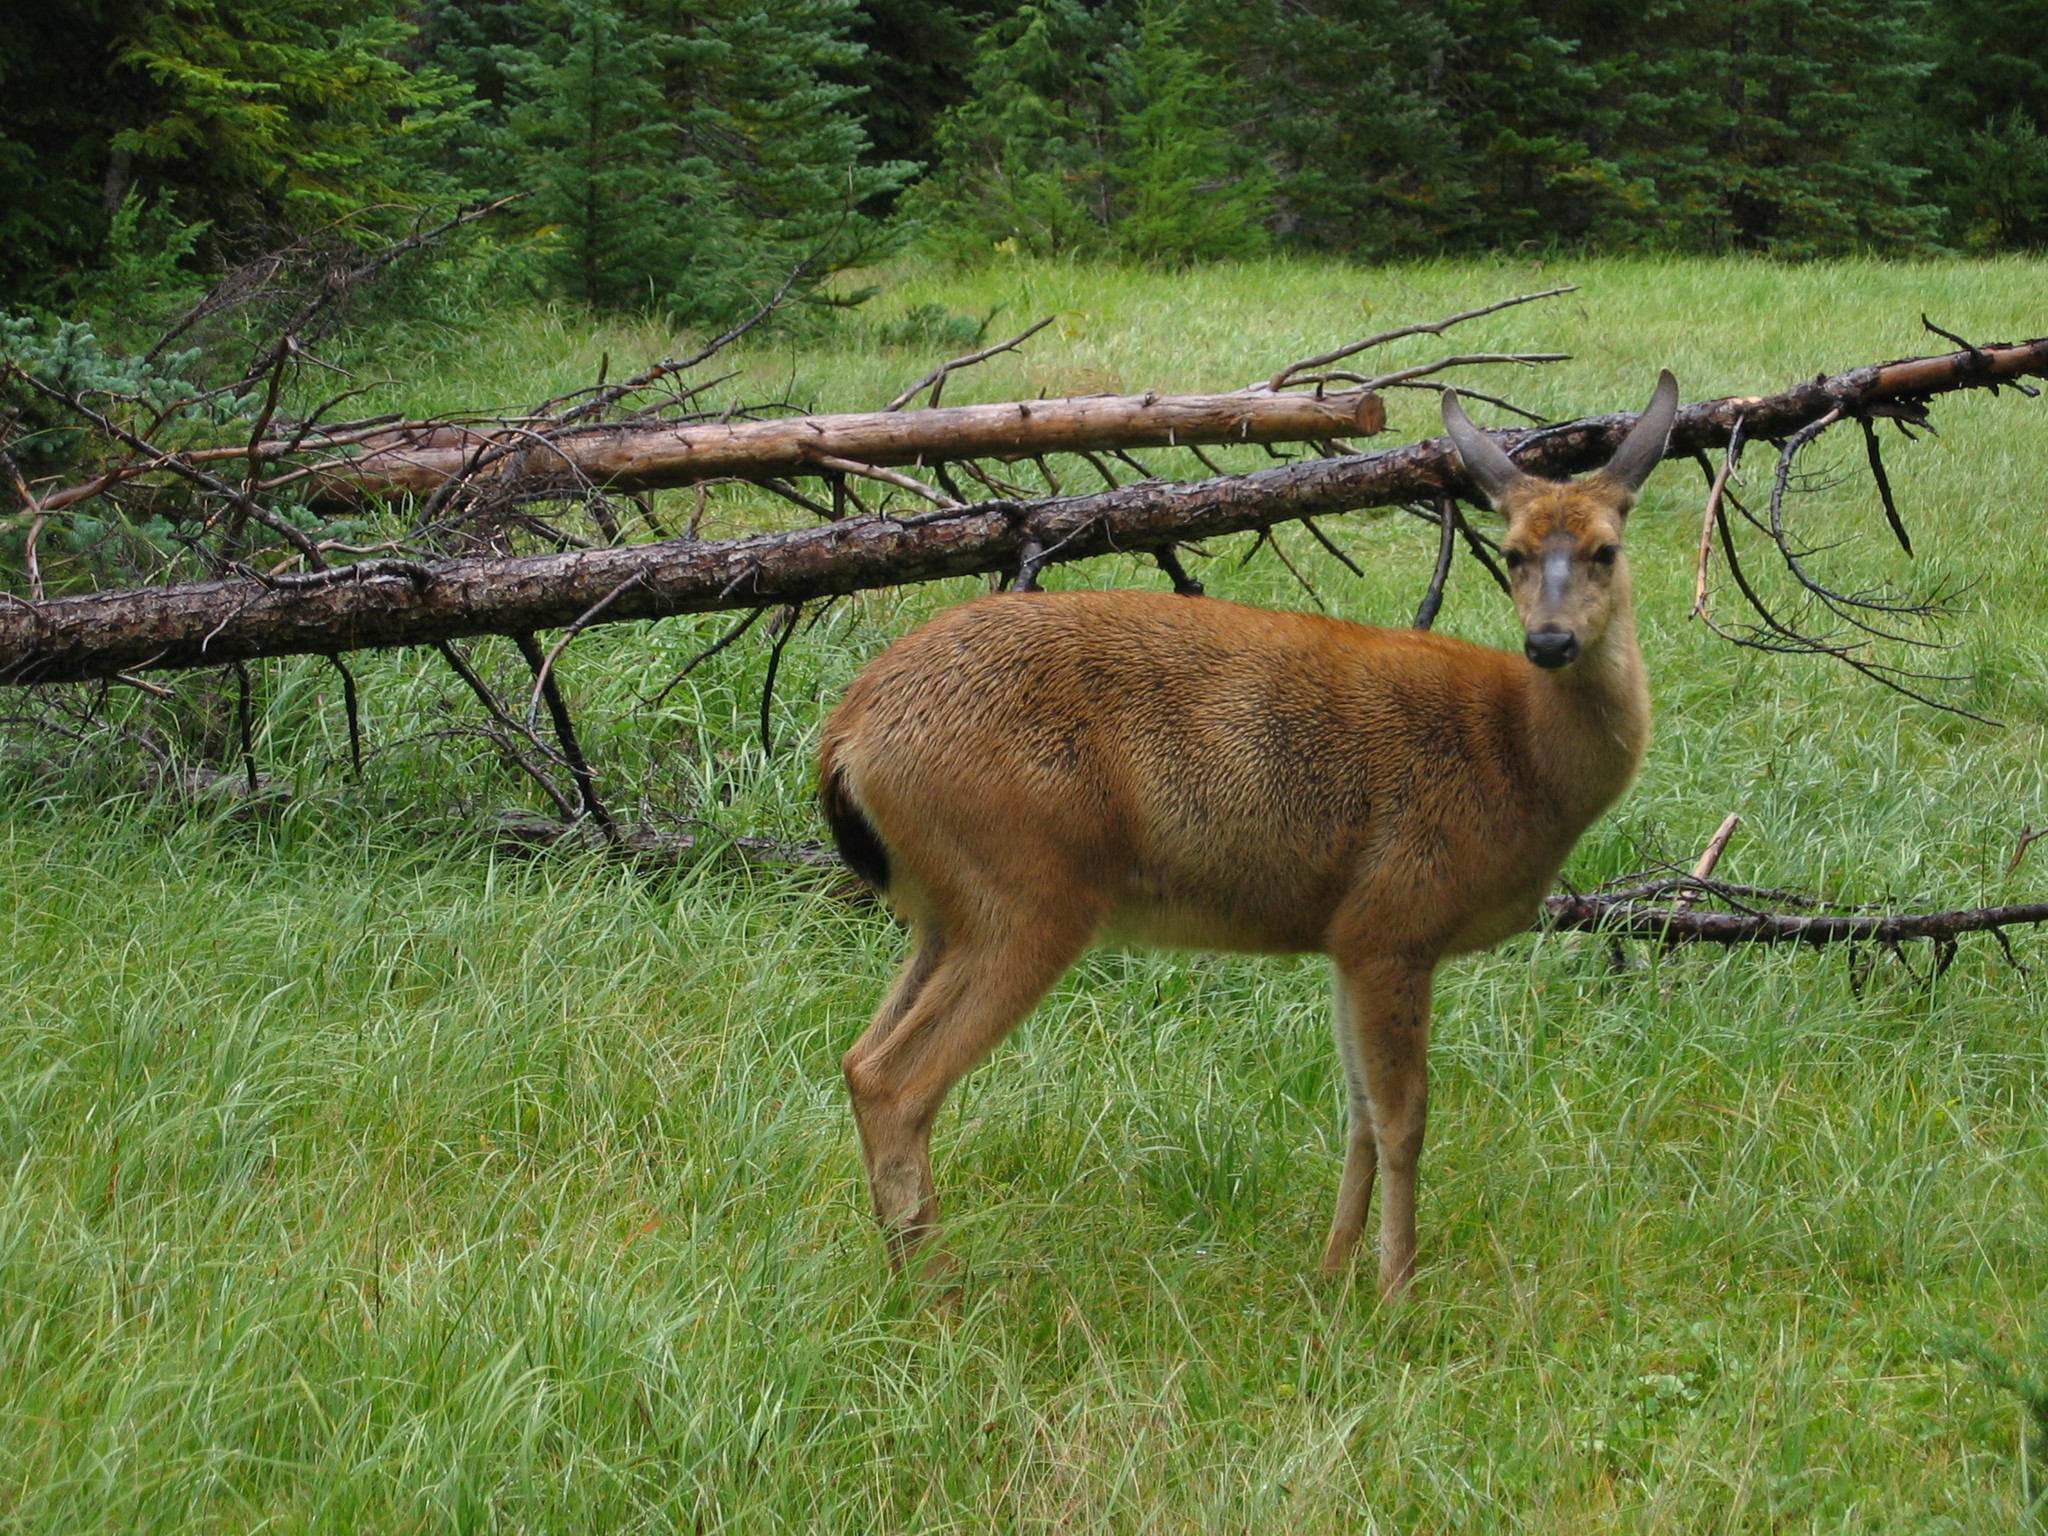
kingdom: Animalia
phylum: Chordata
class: Mammalia
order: Artiodactyla
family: Cervidae
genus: Odocoileus
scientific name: Odocoileus hemionus
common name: Mule deer
